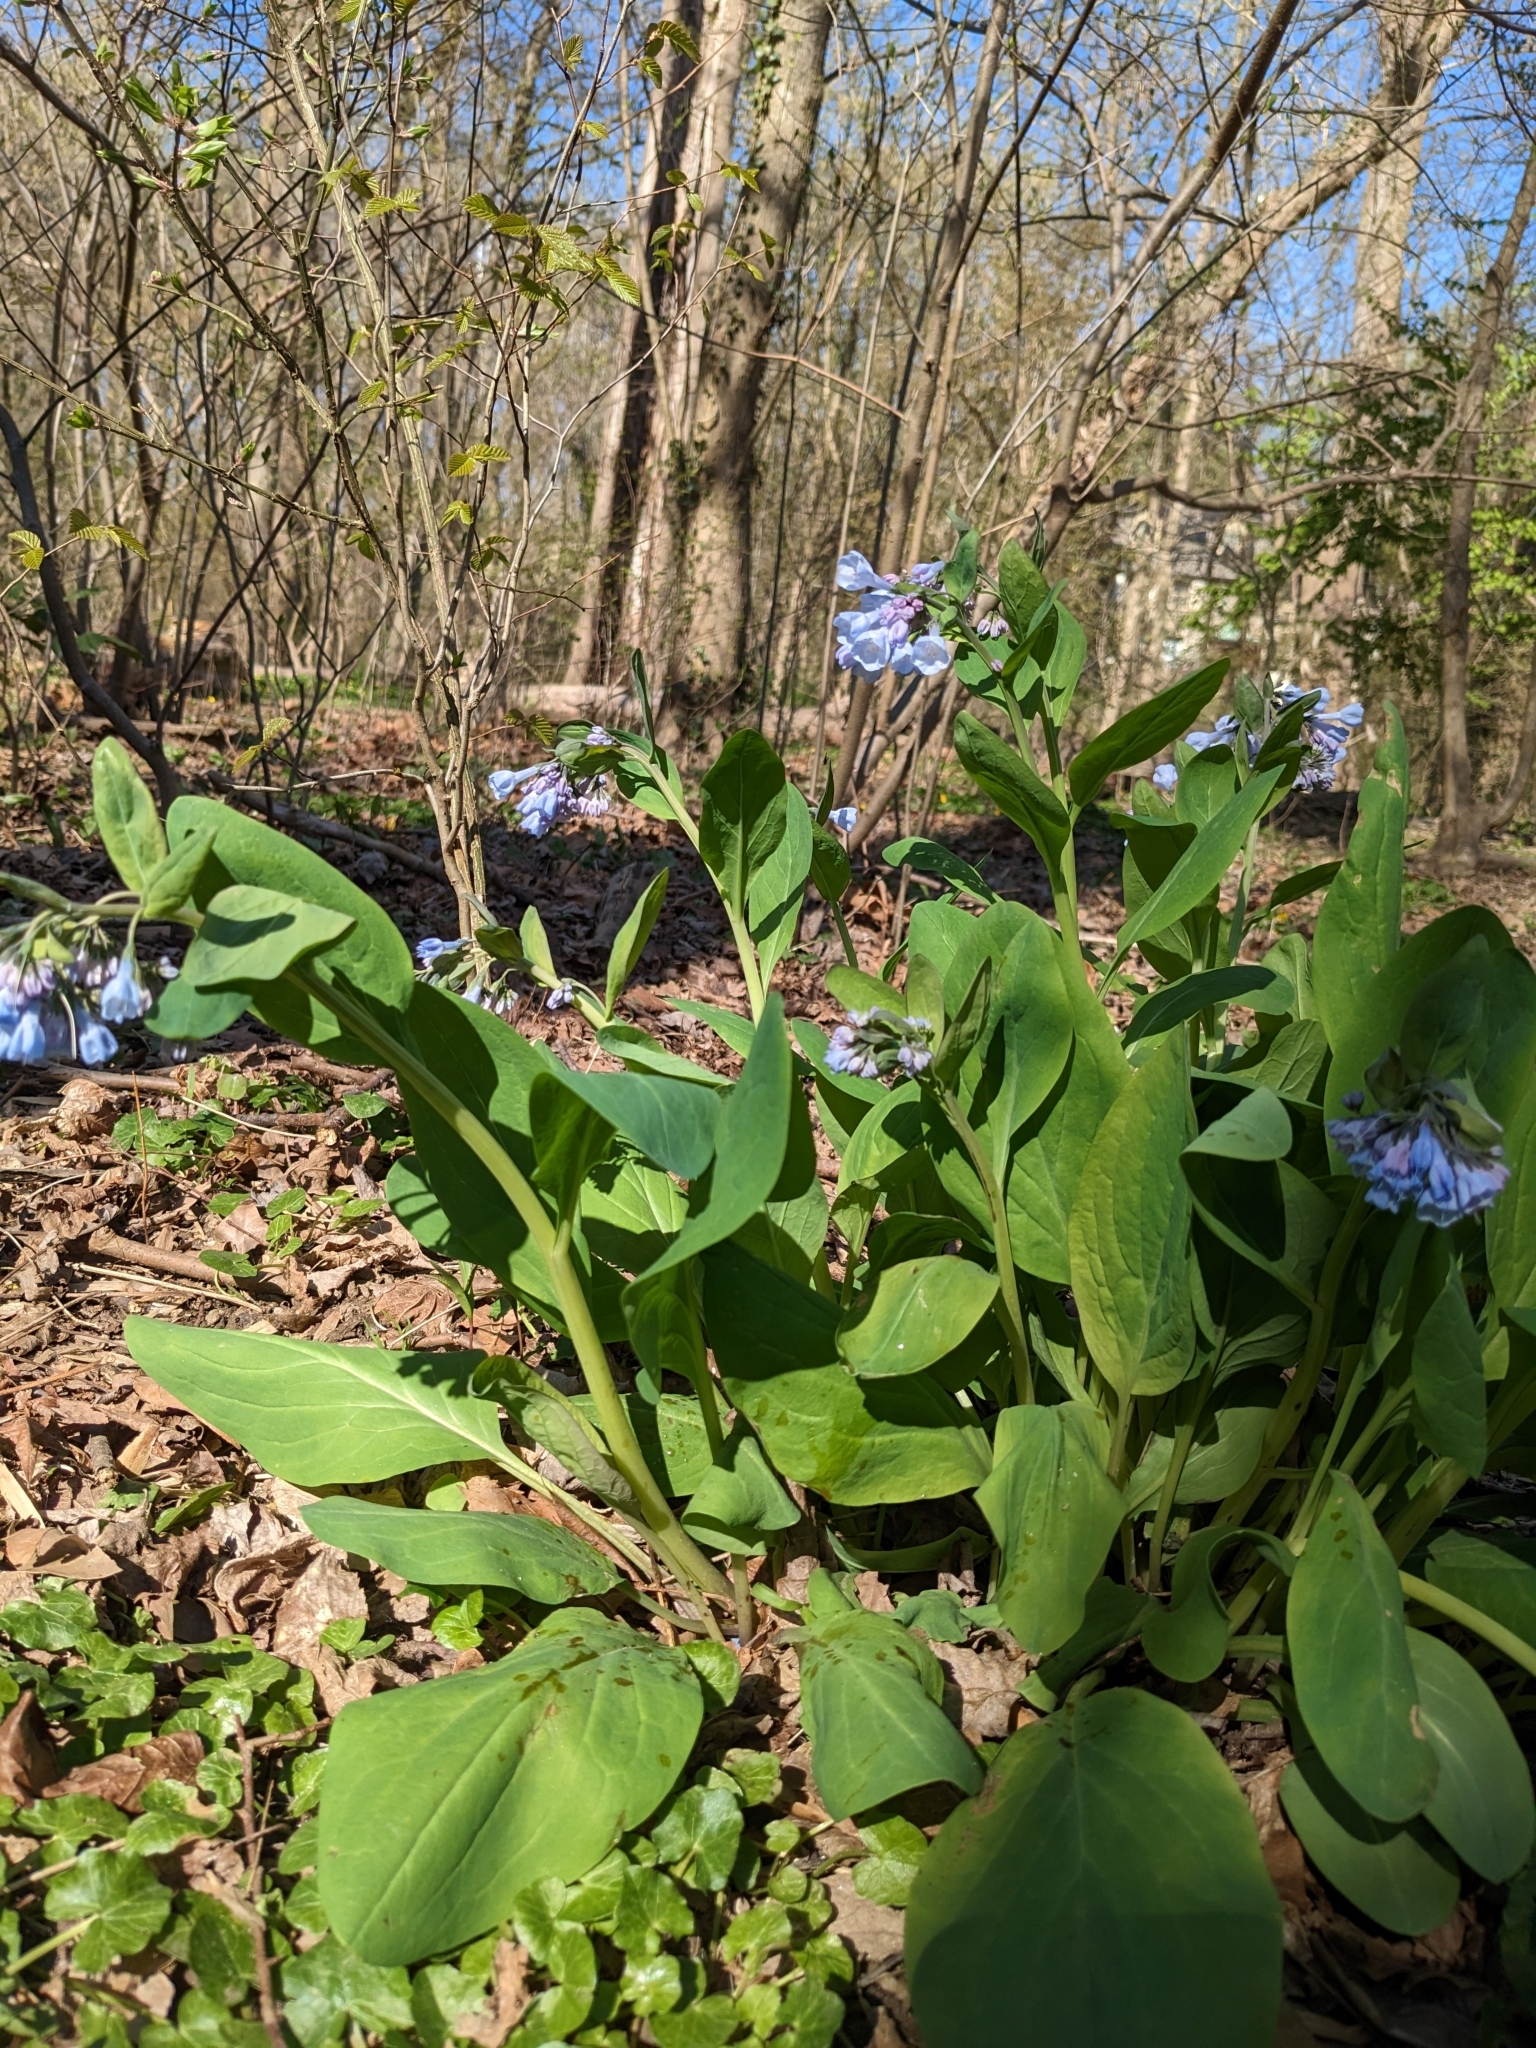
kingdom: Plantae
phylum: Tracheophyta
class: Magnoliopsida
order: Boraginales
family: Boraginaceae
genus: Mertensia
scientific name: Mertensia virginica
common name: Virginia bluebells
